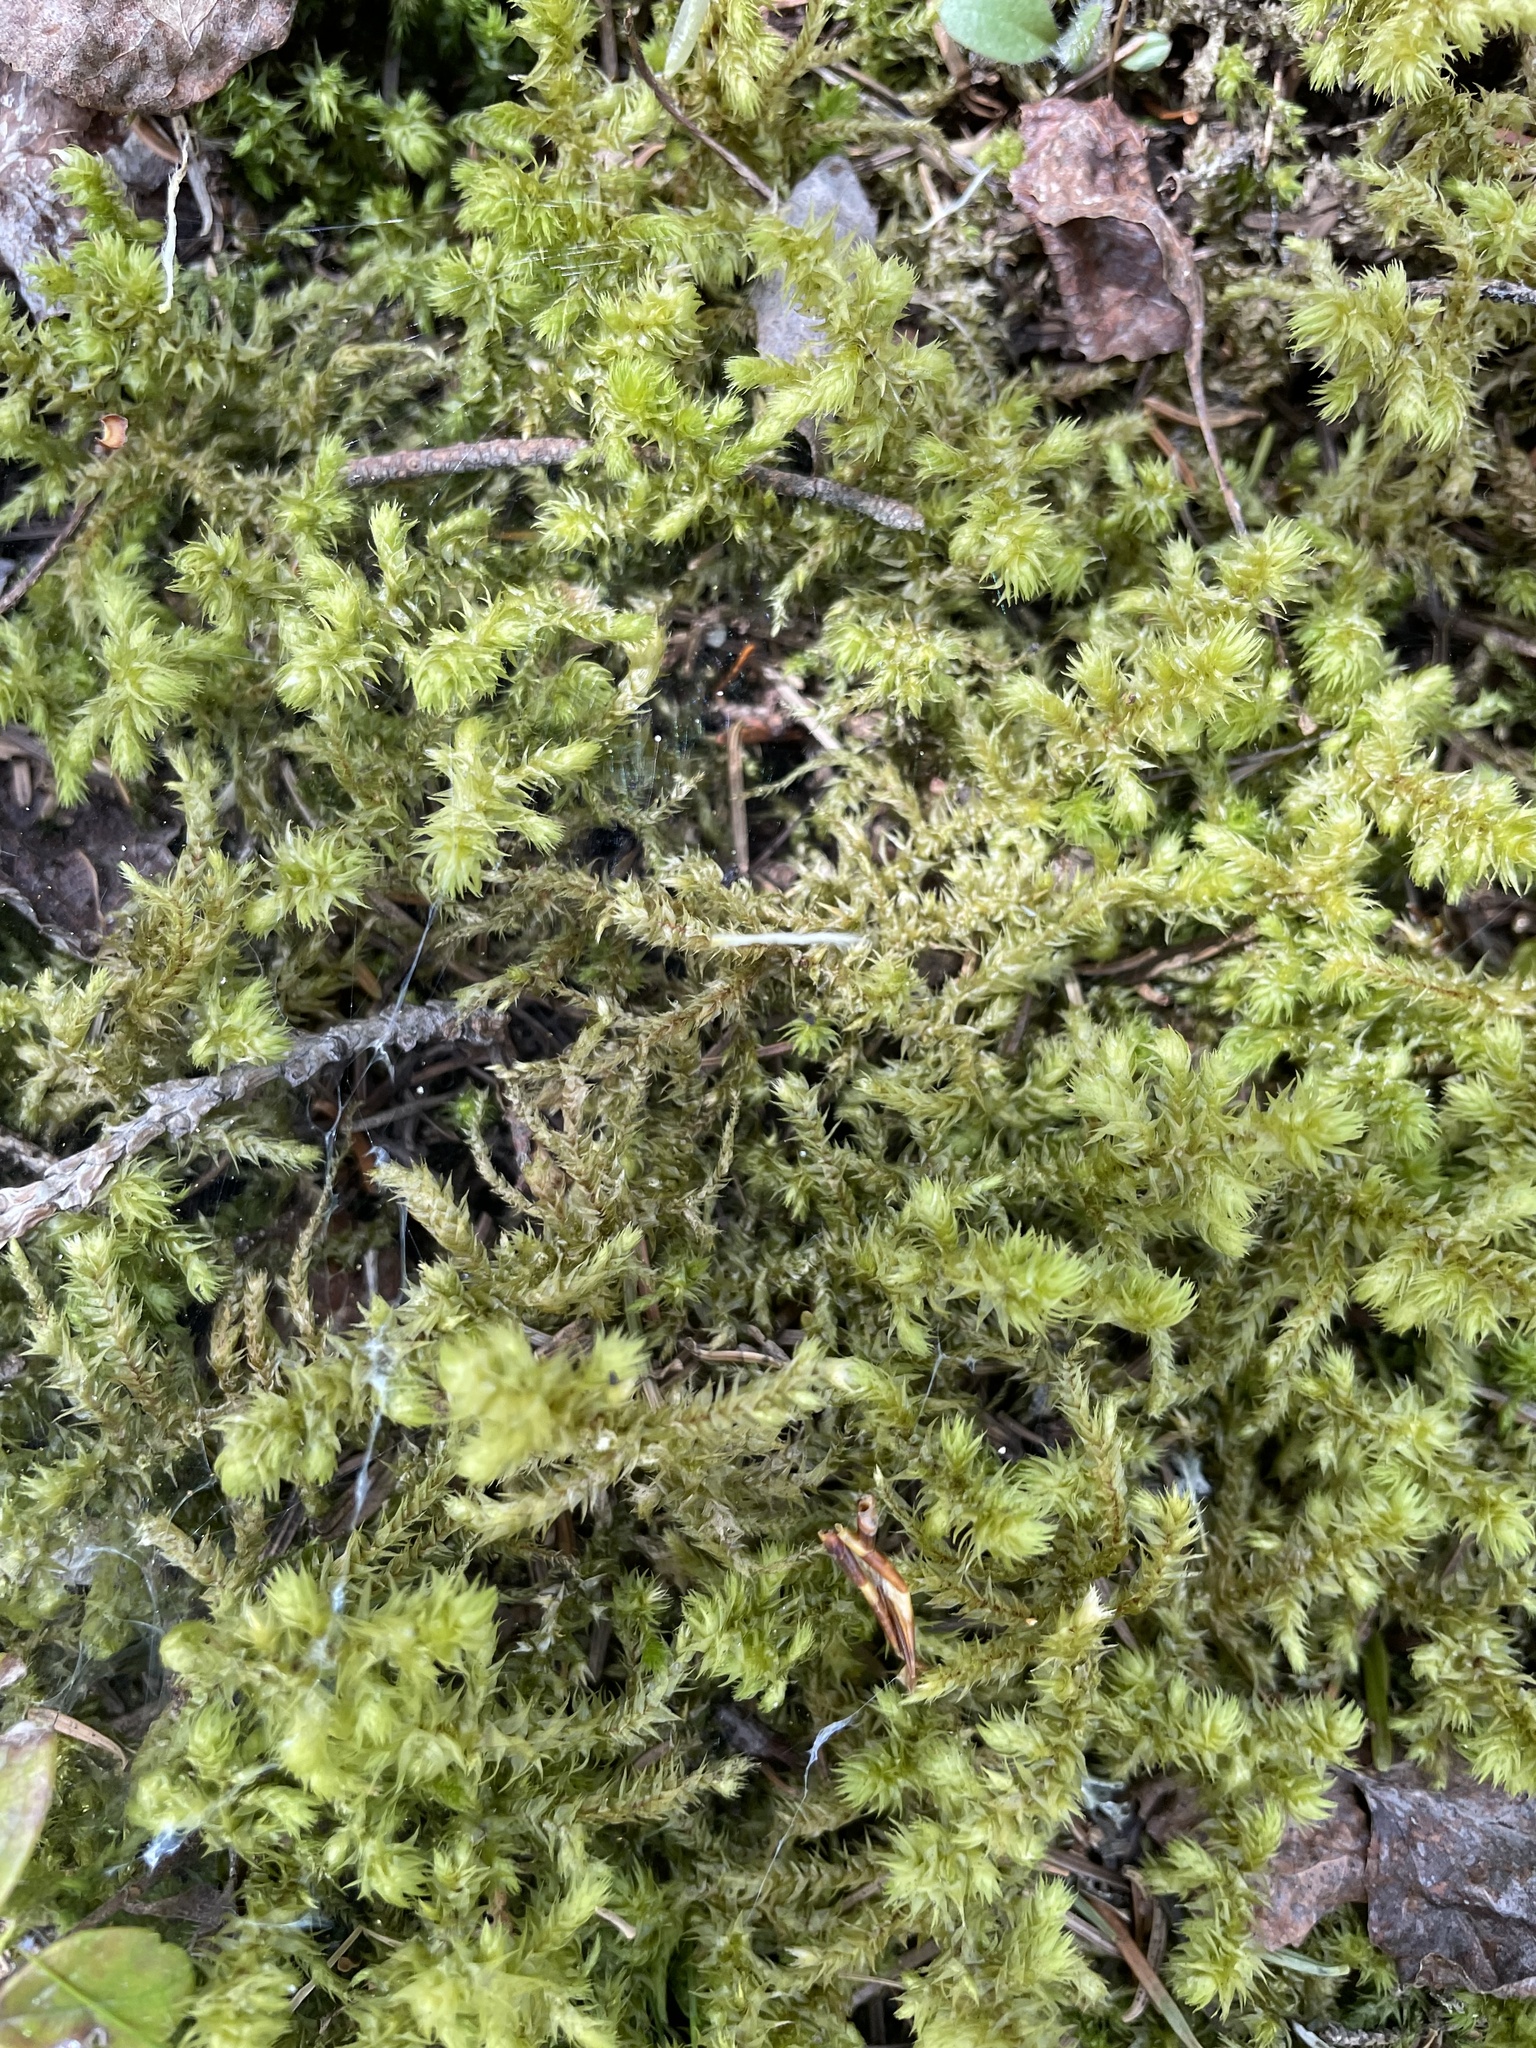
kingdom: Plantae
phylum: Bryophyta
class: Bryopsida
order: Hypnales
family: Hylocomiaceae
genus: Hylocomiadelphus
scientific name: Hylocomiadelphus triquetrus
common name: Rough goose neck moss
